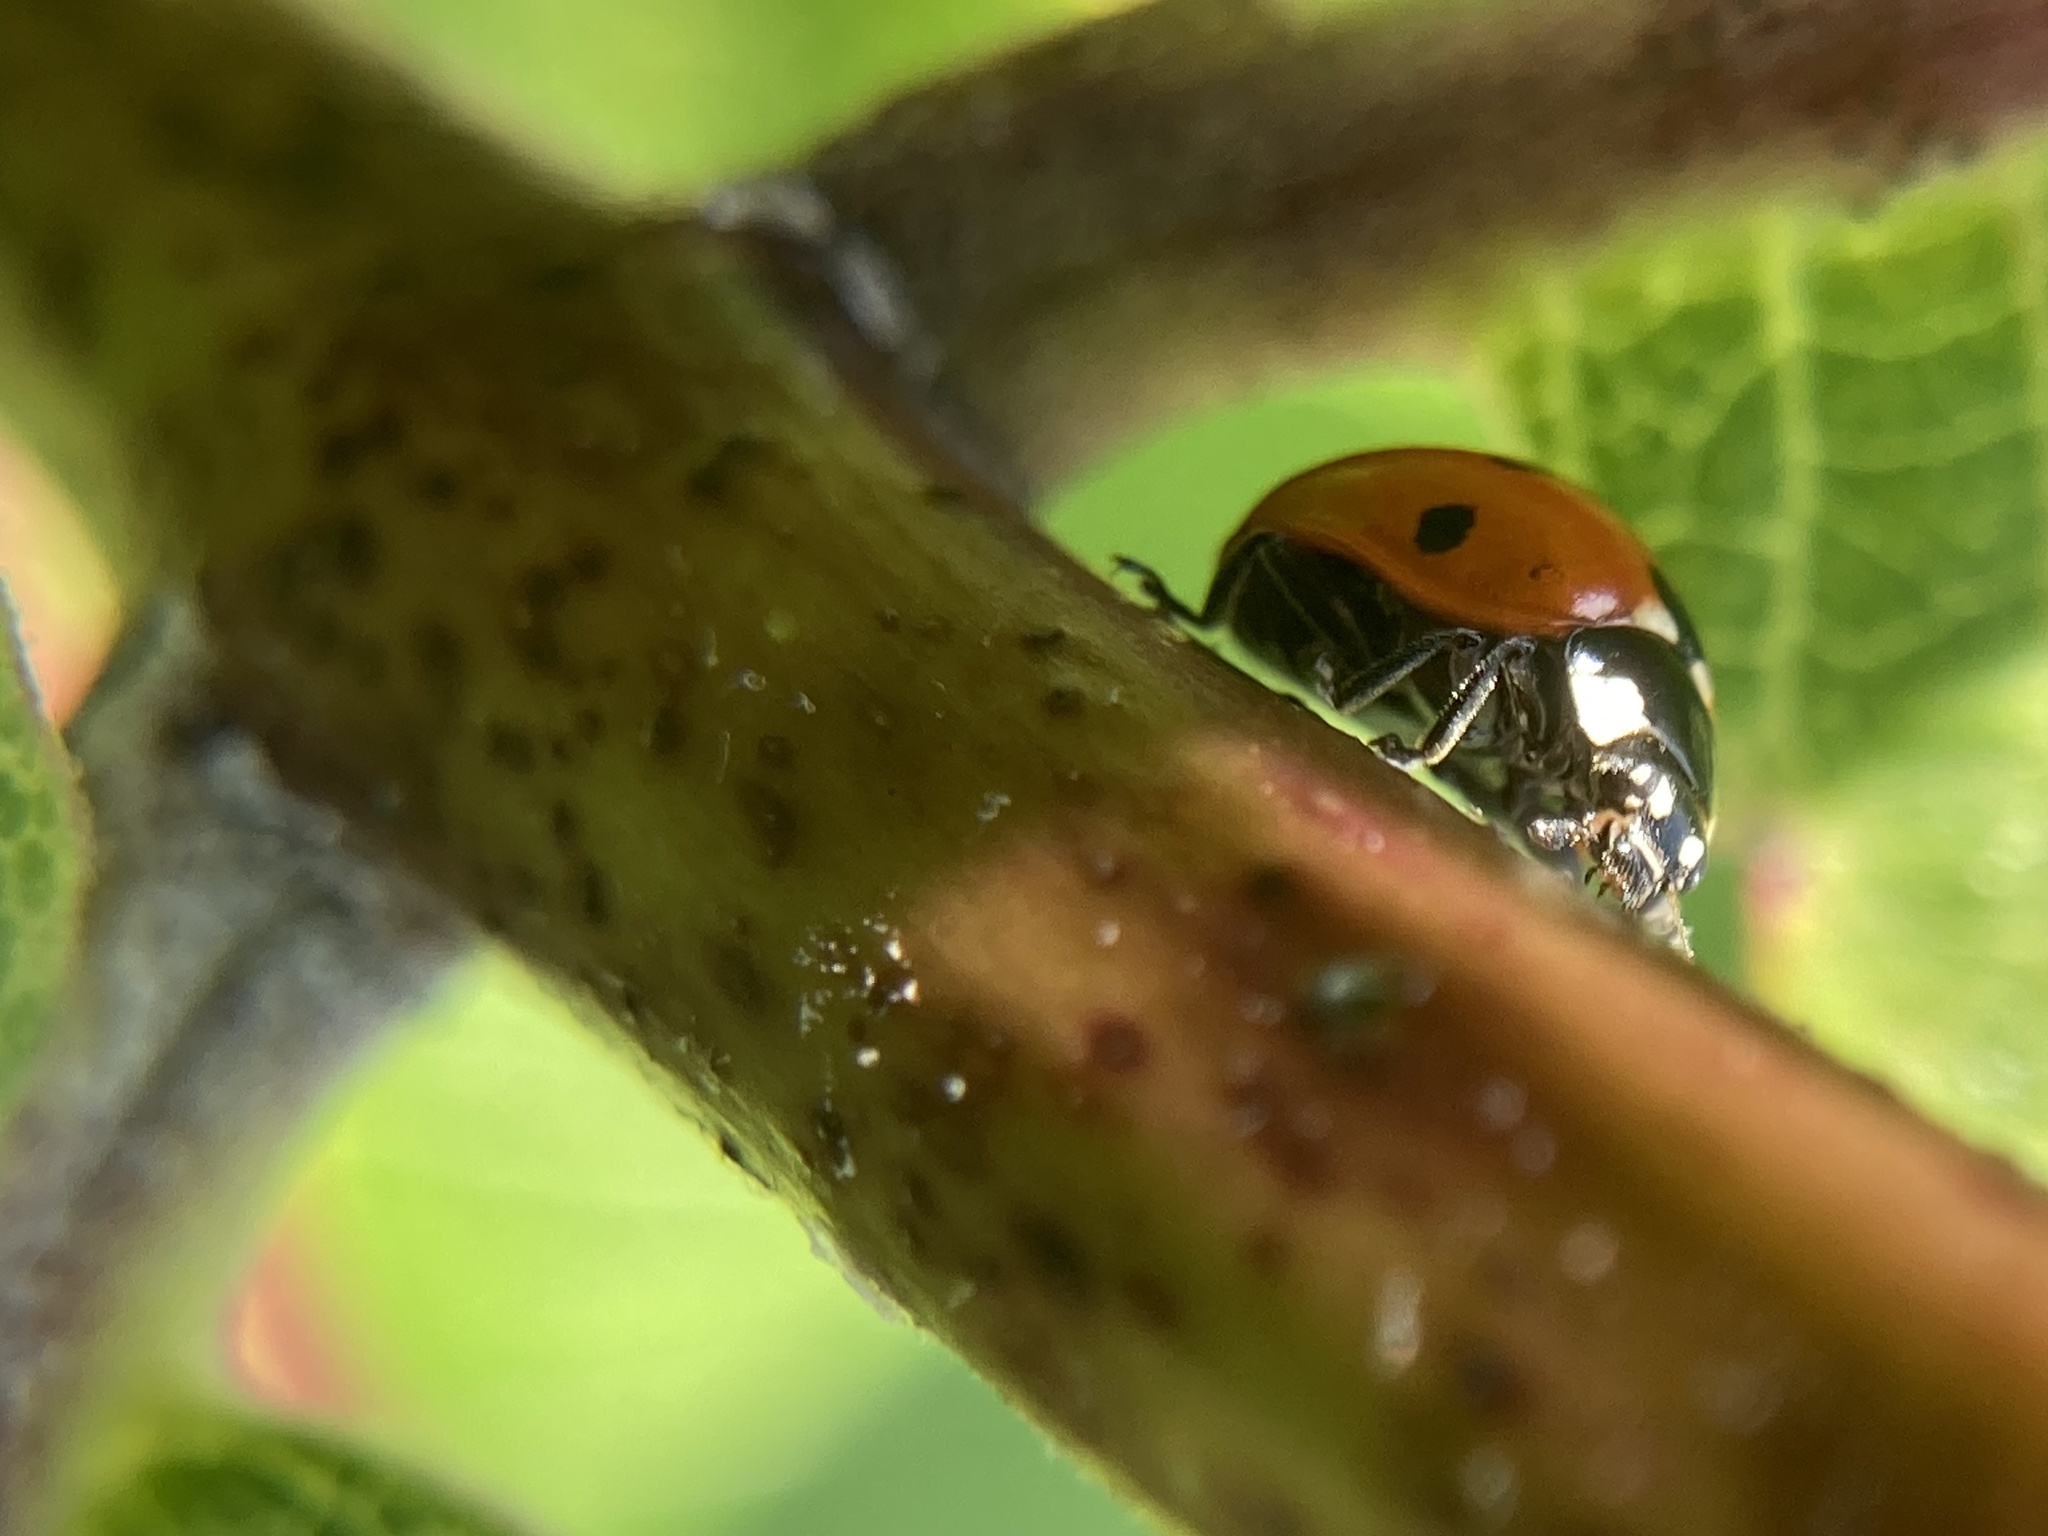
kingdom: Animalia
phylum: Arthropoda
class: Insecta
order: Coleoptera
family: Coccinellidae
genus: Coccinella
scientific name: Coccinella septempunctata
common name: Sevenspotted lady beetle
